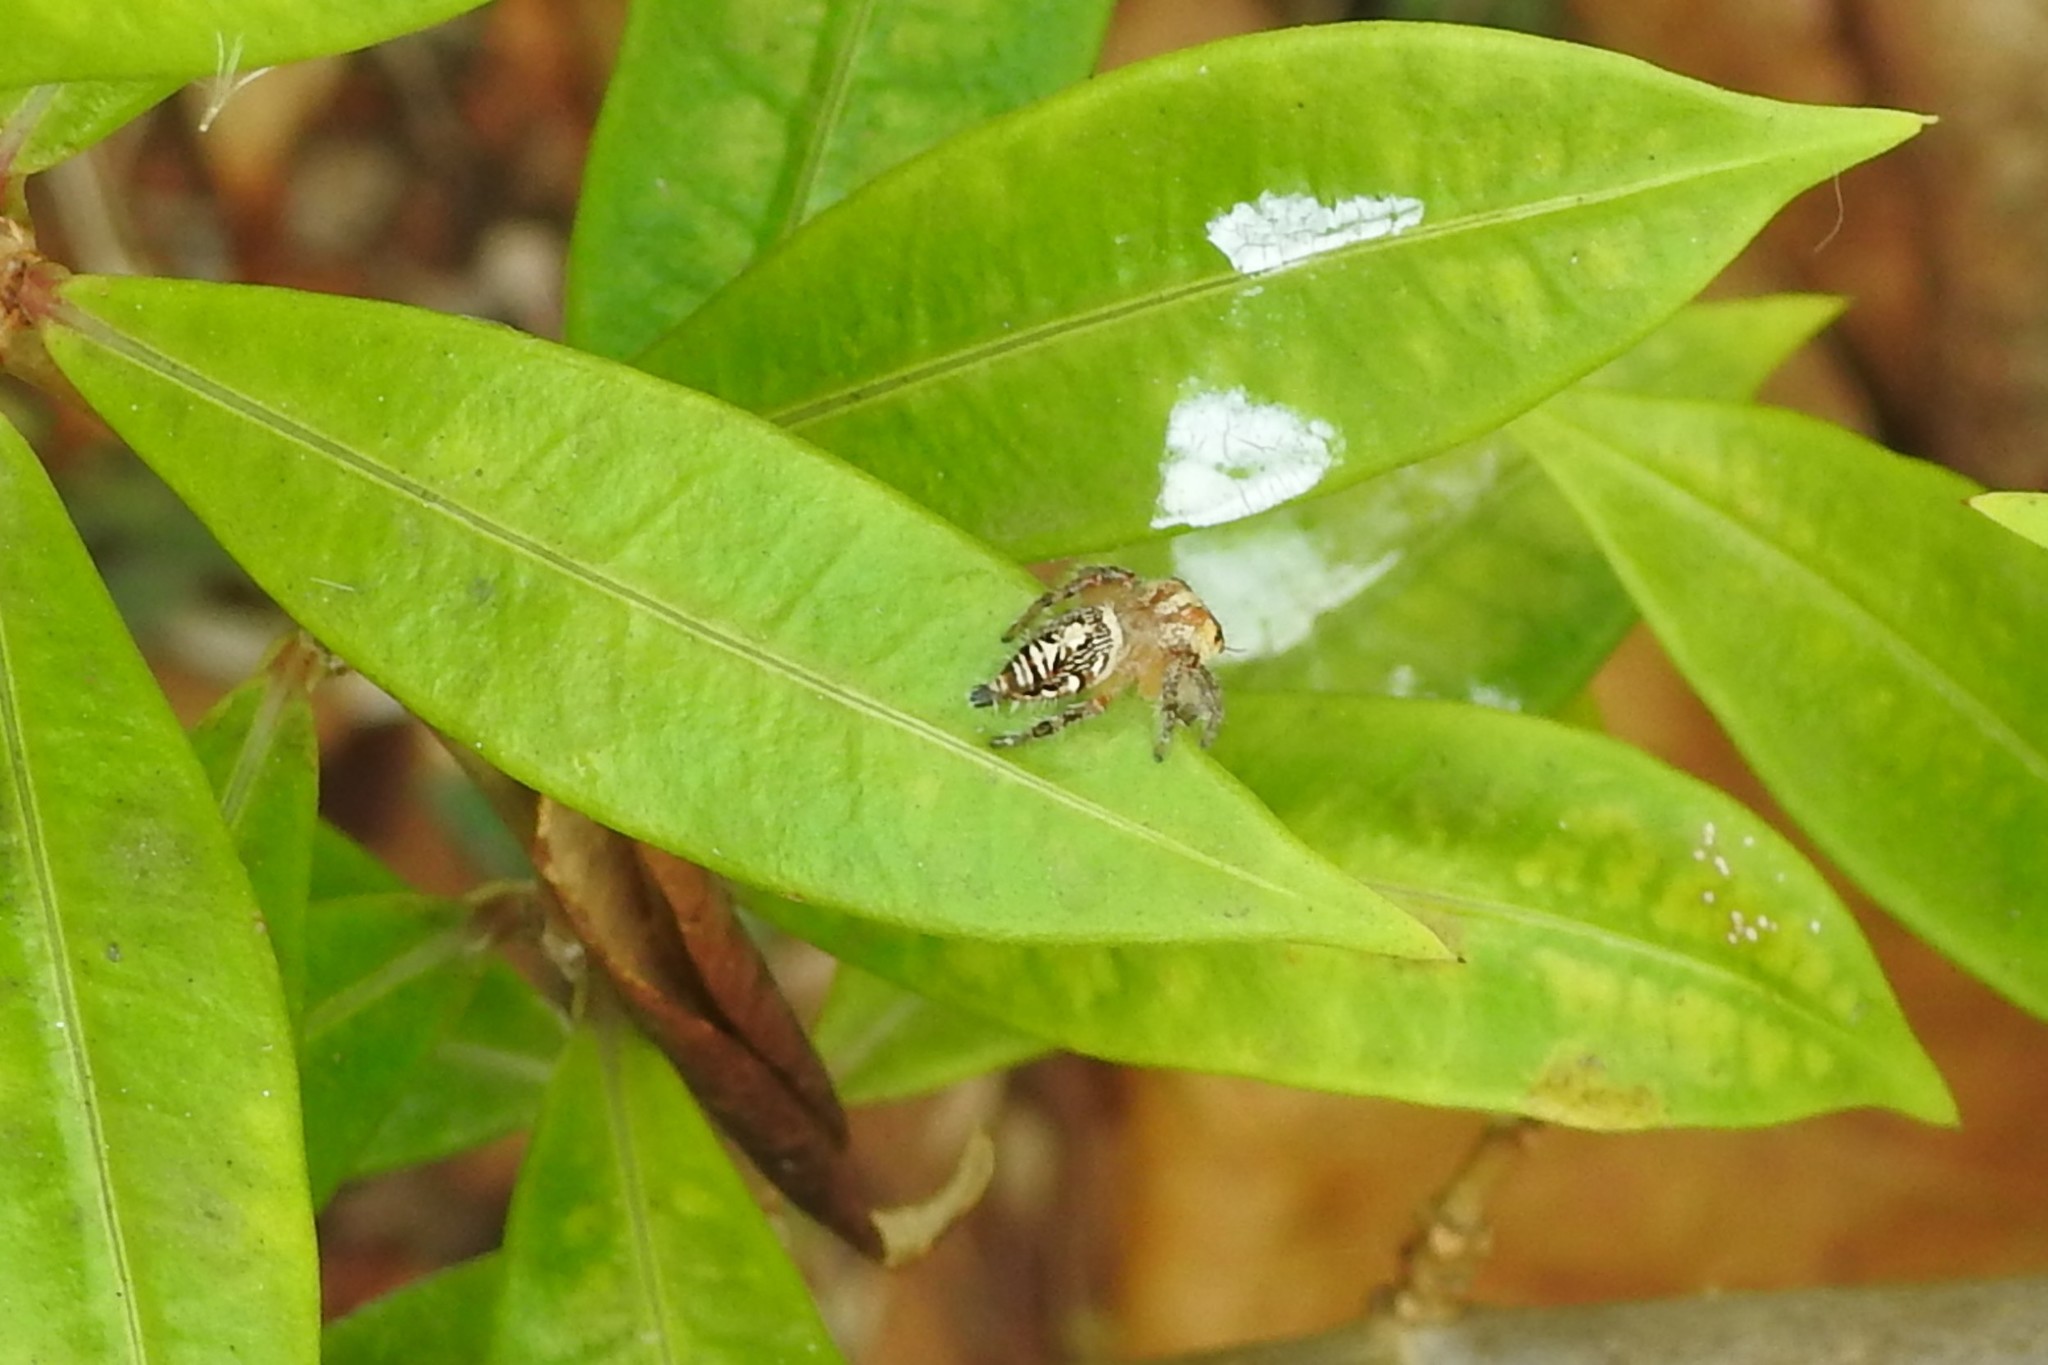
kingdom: Animalia
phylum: Arthropoda
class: Arachnida
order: Araneae
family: Salticidae
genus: Hyllus
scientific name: Hyllus semicupreus
